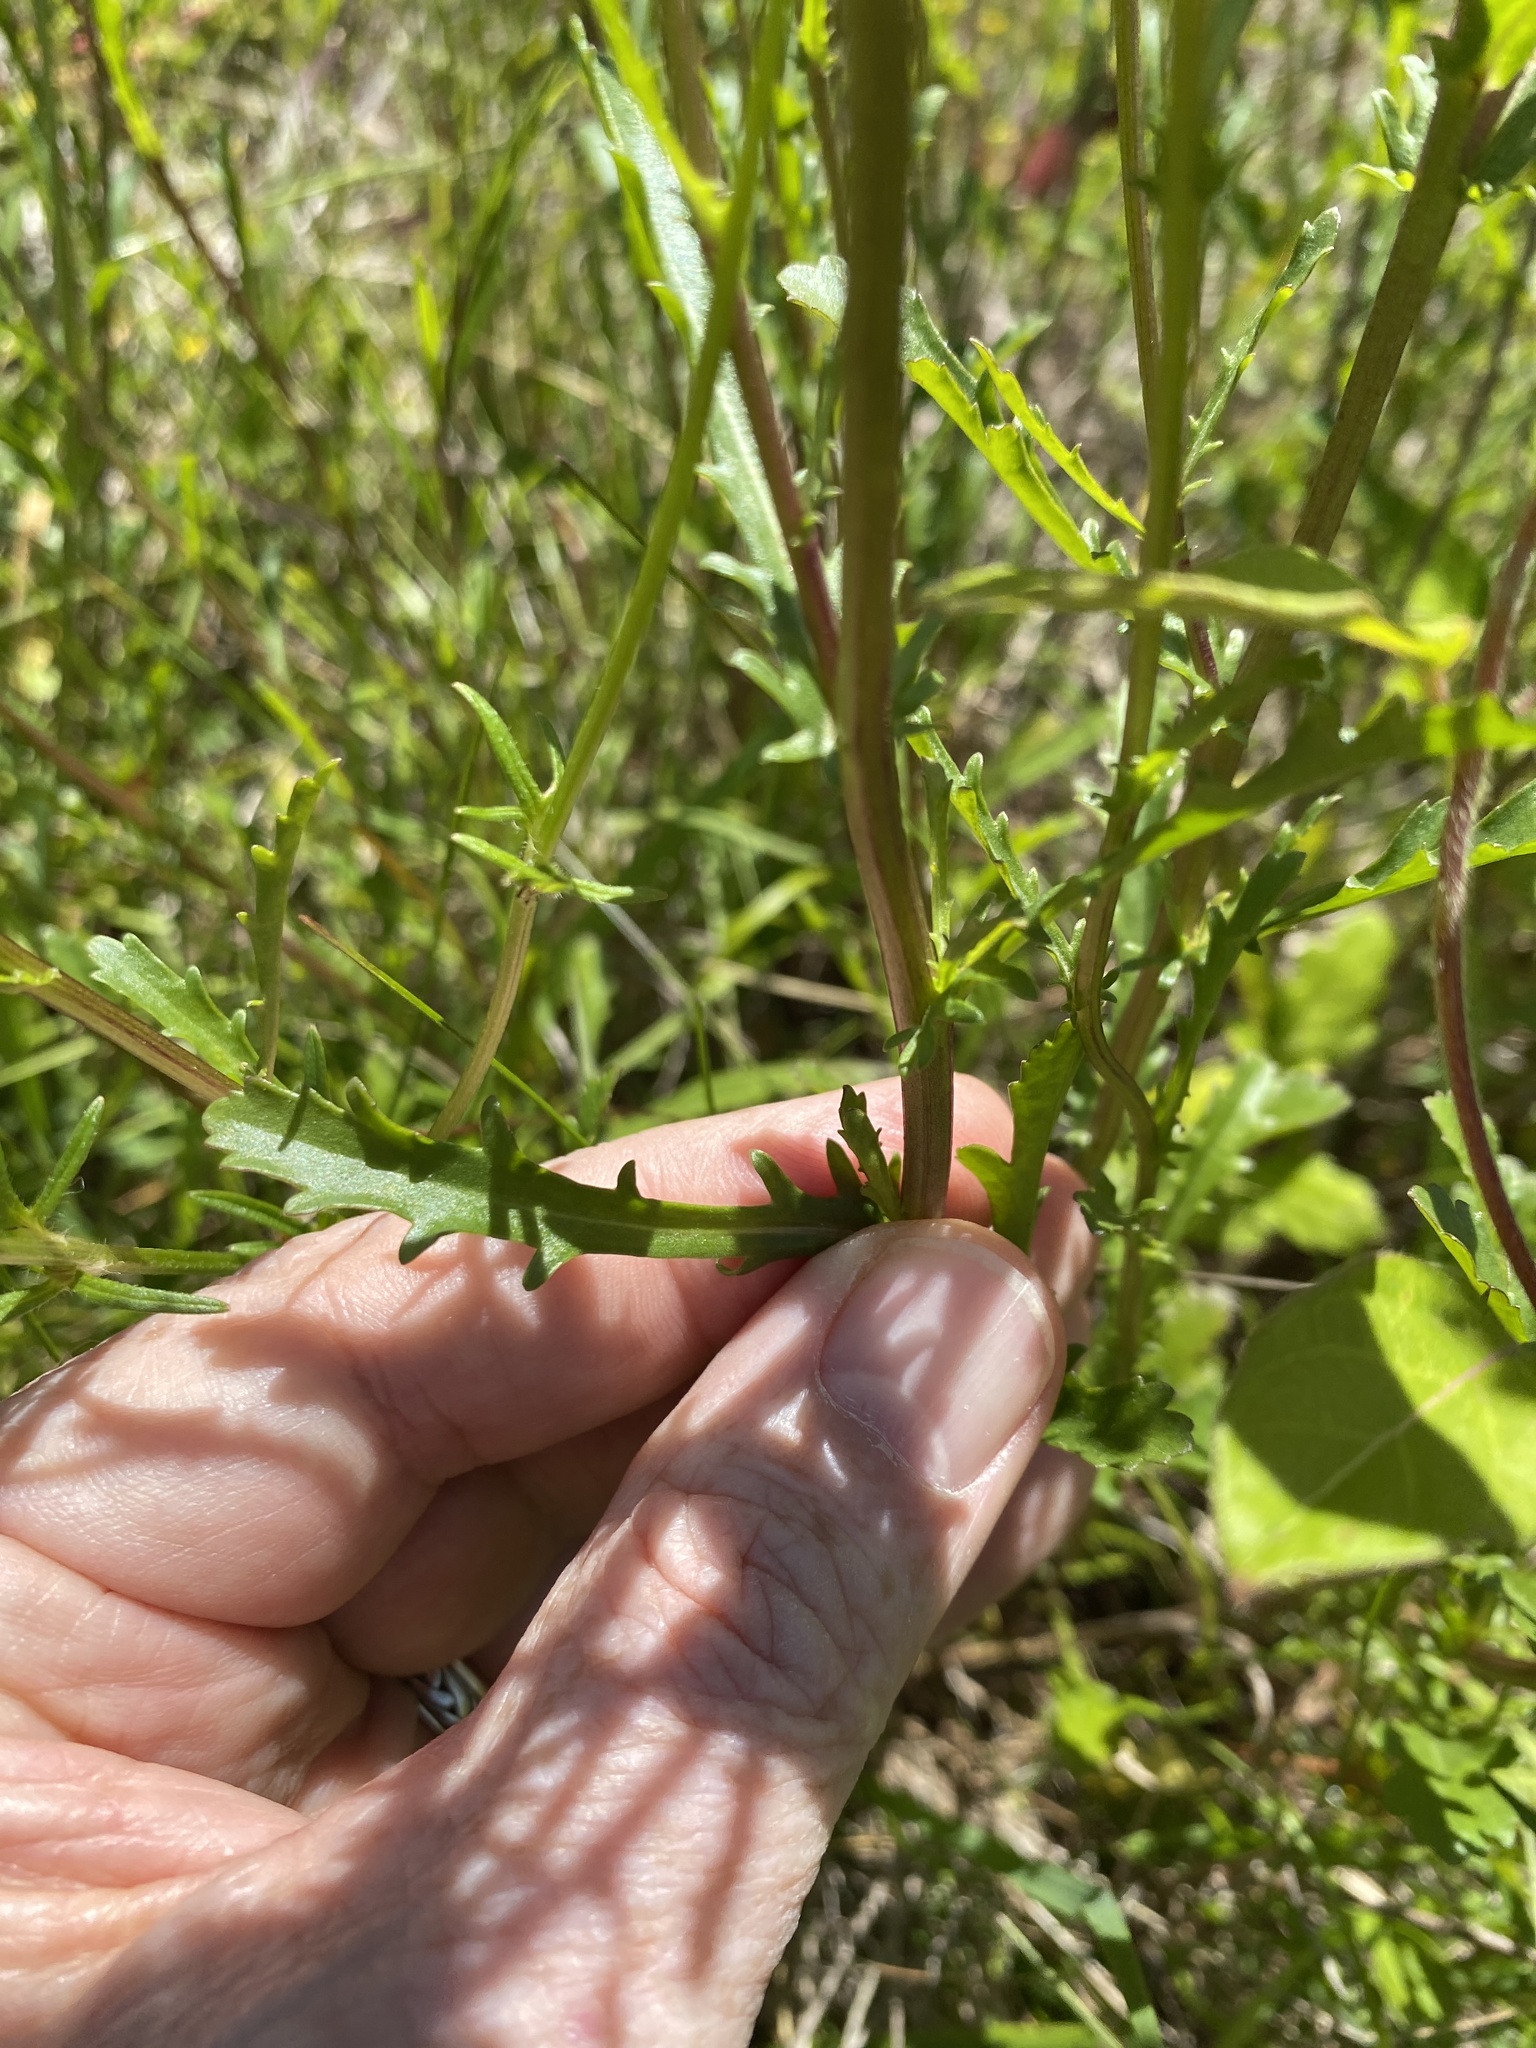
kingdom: Plantae
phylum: Tracheophyta
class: Magnoliopsida
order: Asterales
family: Asteraceae
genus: Leucanthemum
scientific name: Leucanthemum vulgare
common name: Oxeye daisy
